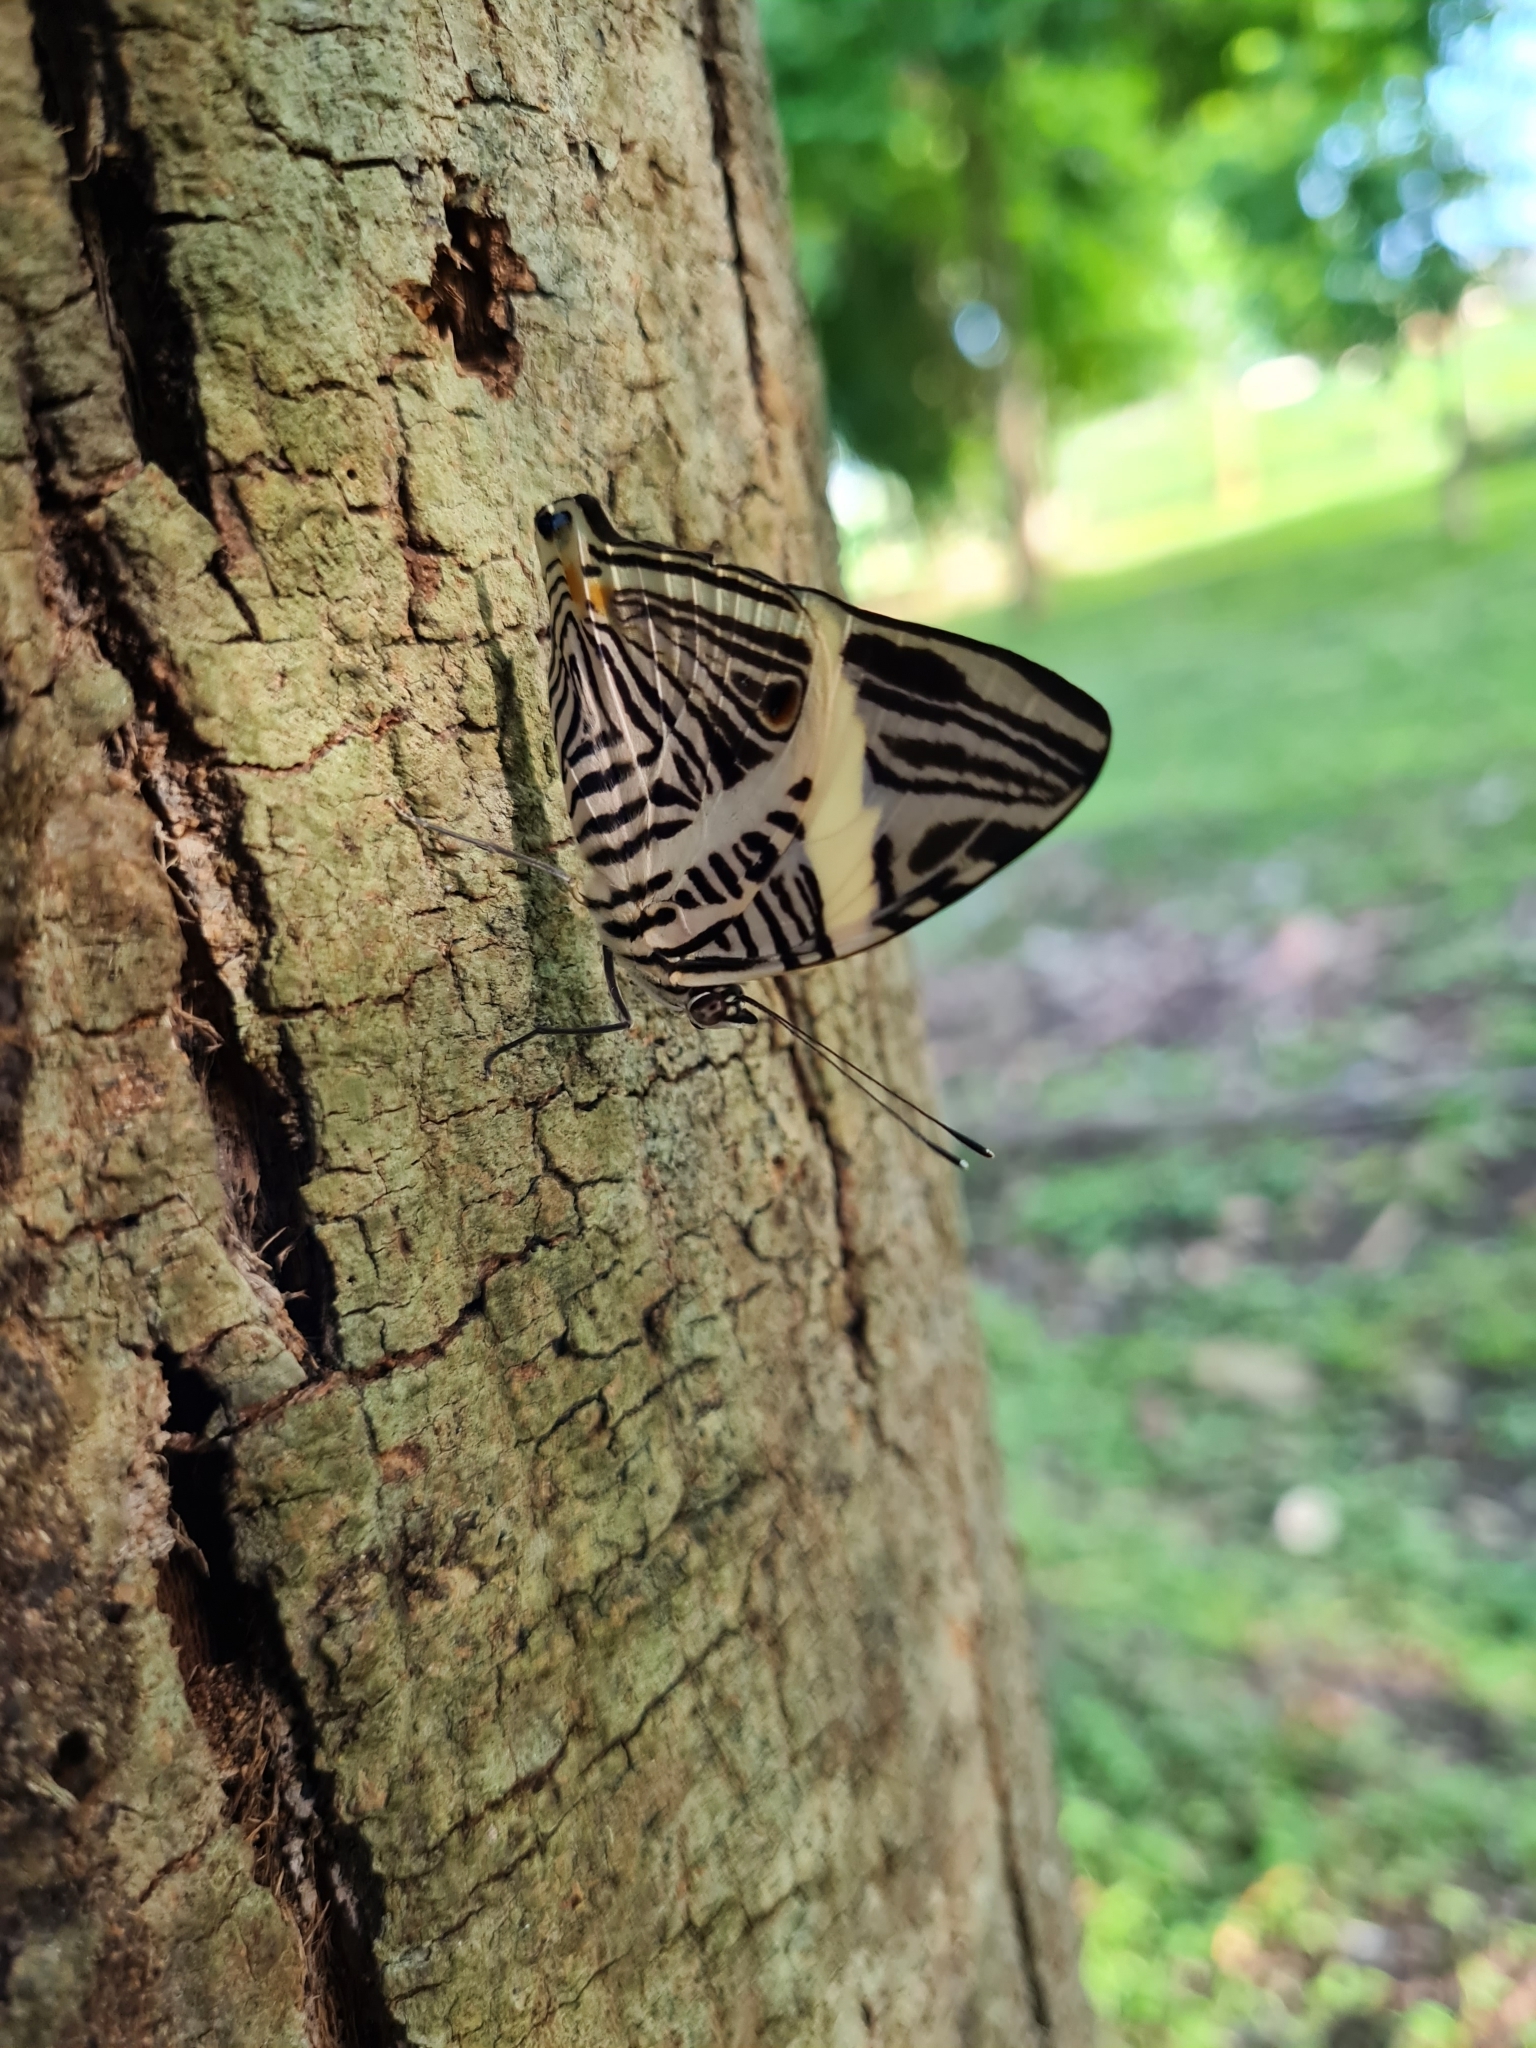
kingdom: Animalia
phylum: Arthropoda
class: Insecta
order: Lepidoptera
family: Nymphalidae
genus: Colobura
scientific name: Colobura dirce
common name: Dirce beauty
